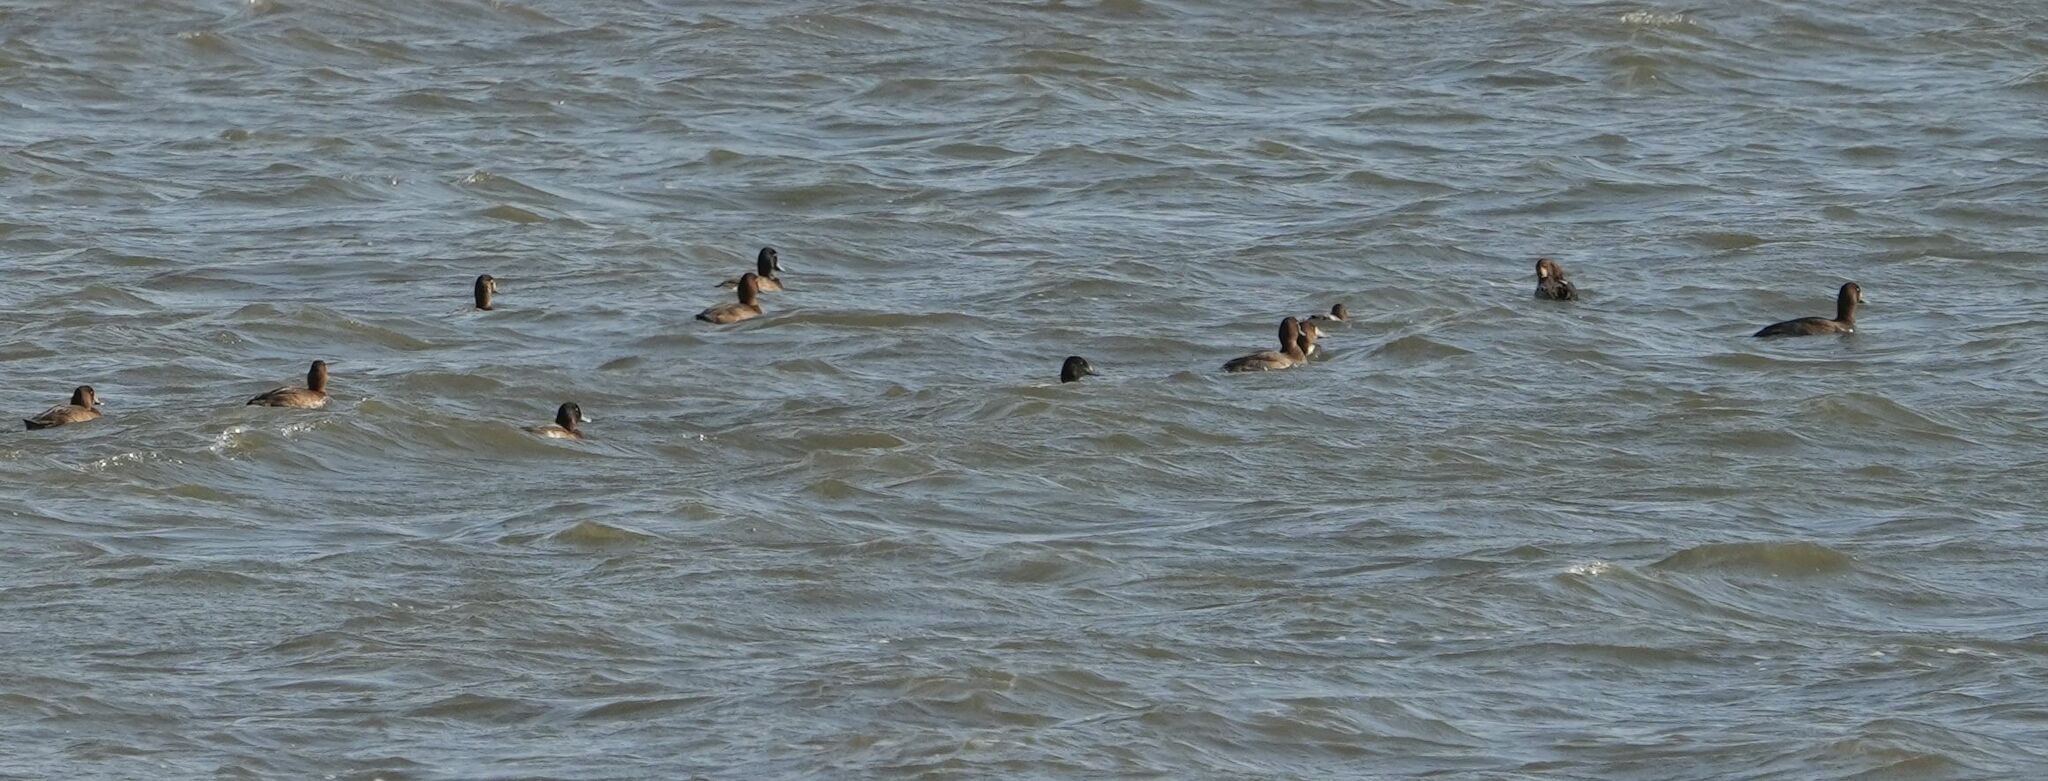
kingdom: Animalia
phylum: Chordata
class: Aves
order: Anseriformes
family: Anatidae
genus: Aythya
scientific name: Aythya marila
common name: Greater scaup
